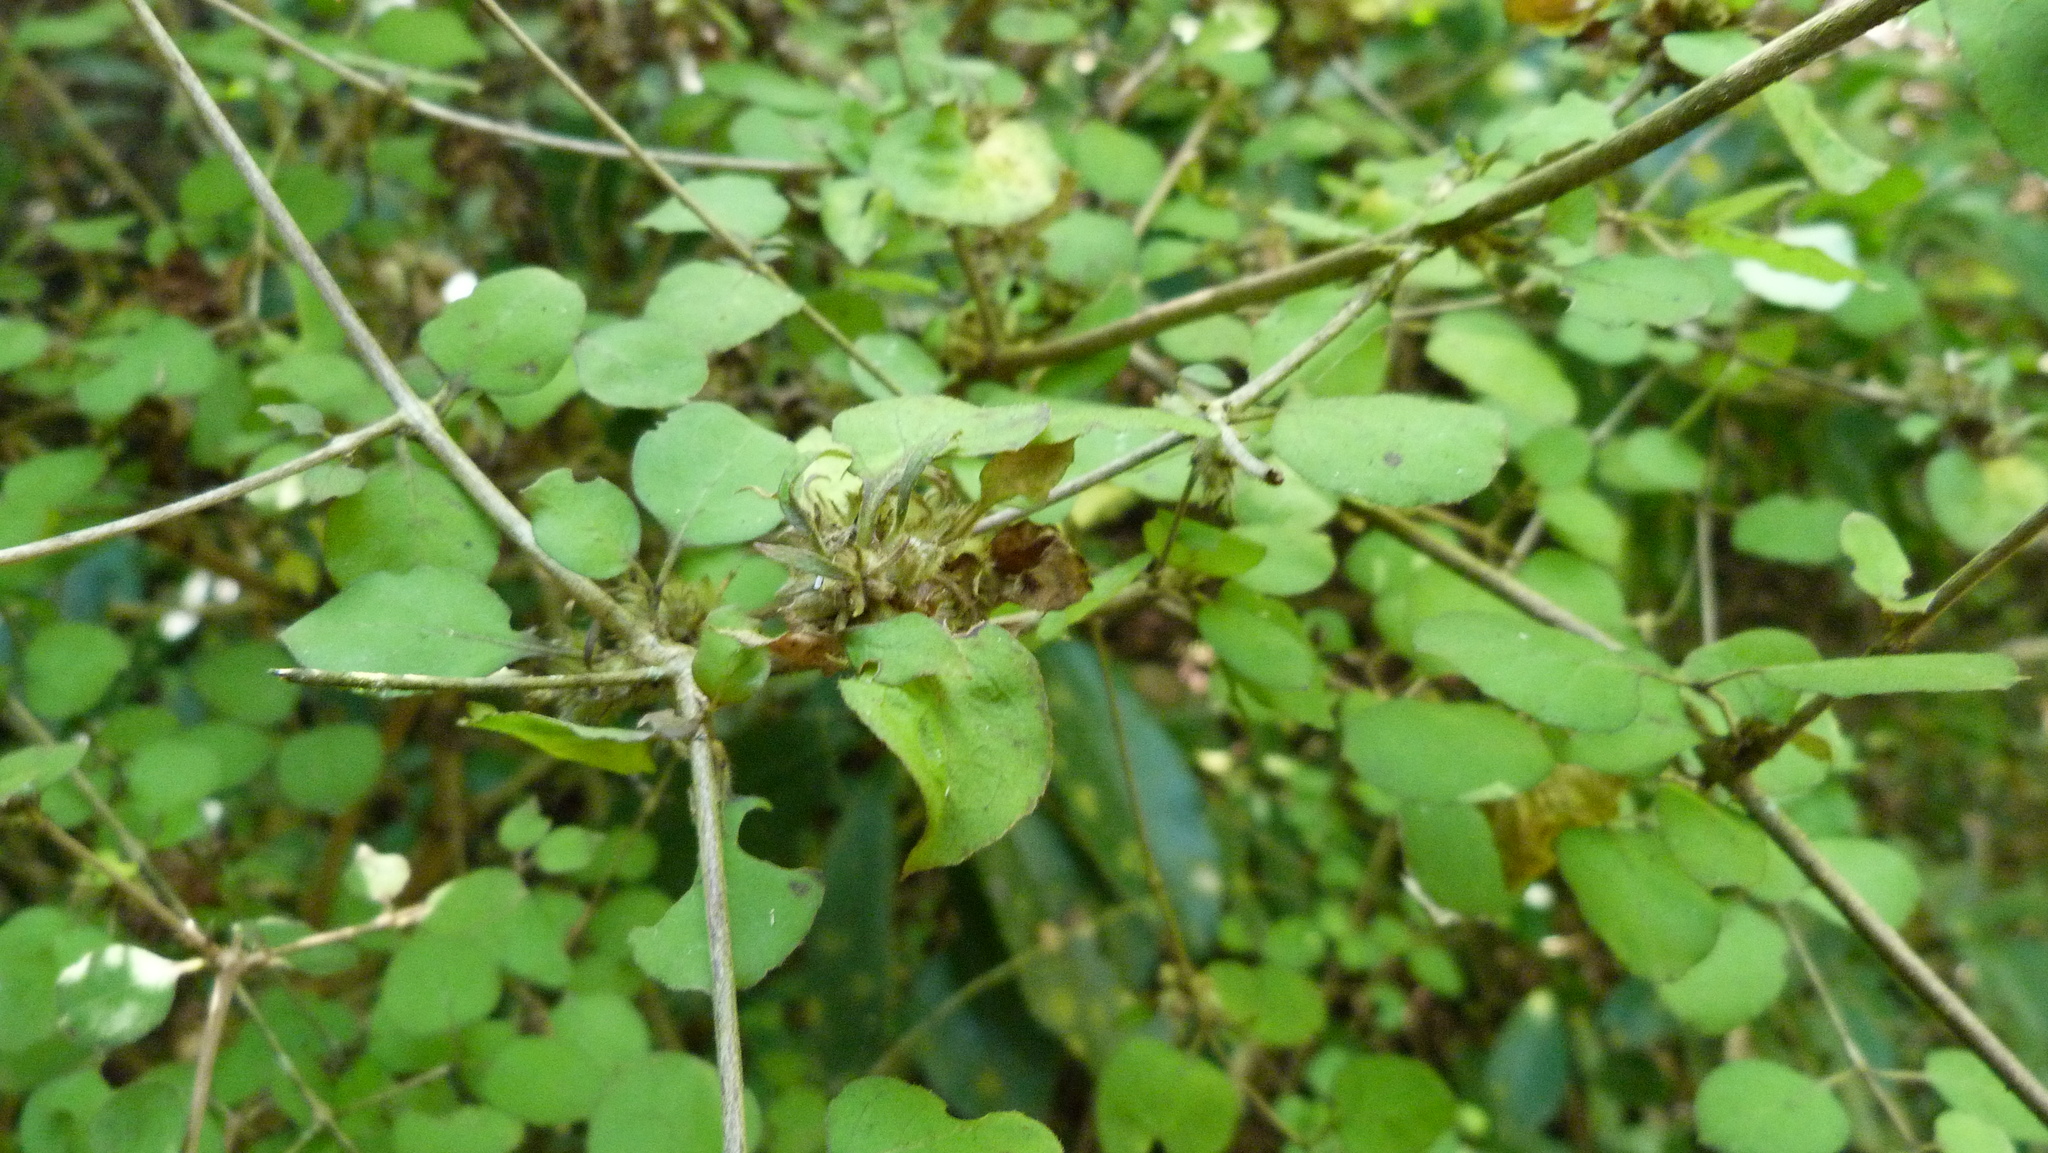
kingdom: Plantae
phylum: Tracheophyta
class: Magnoliopsida
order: Gentianales
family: Rubiaceae
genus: Coprosma
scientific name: Coprosma rotundifolia
